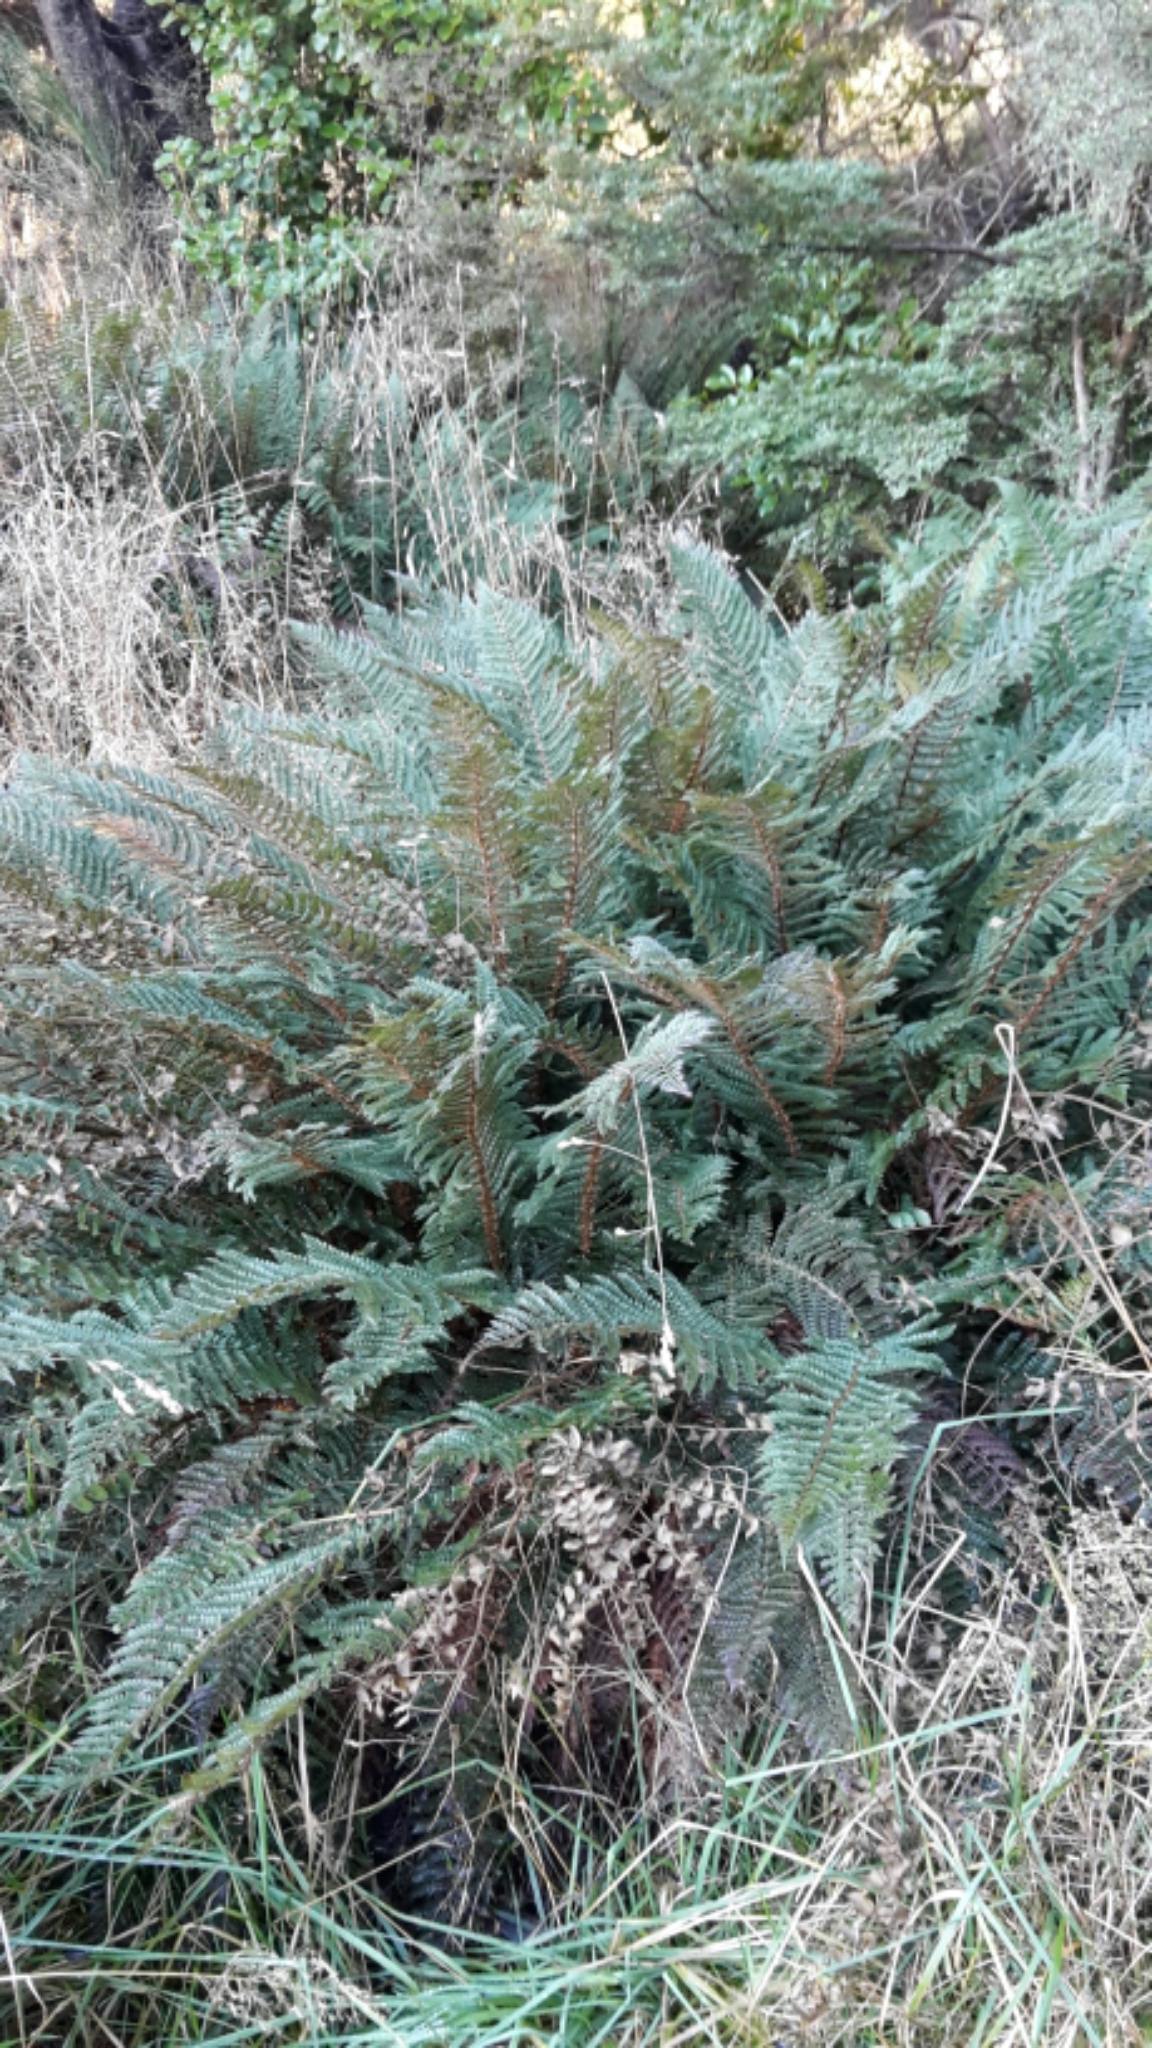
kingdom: Plantae
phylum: Tracheophyta
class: Polypodiopsida
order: Polypodiales
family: Dryopteridaceae
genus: Polystichum
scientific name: Polystichum vestitum
